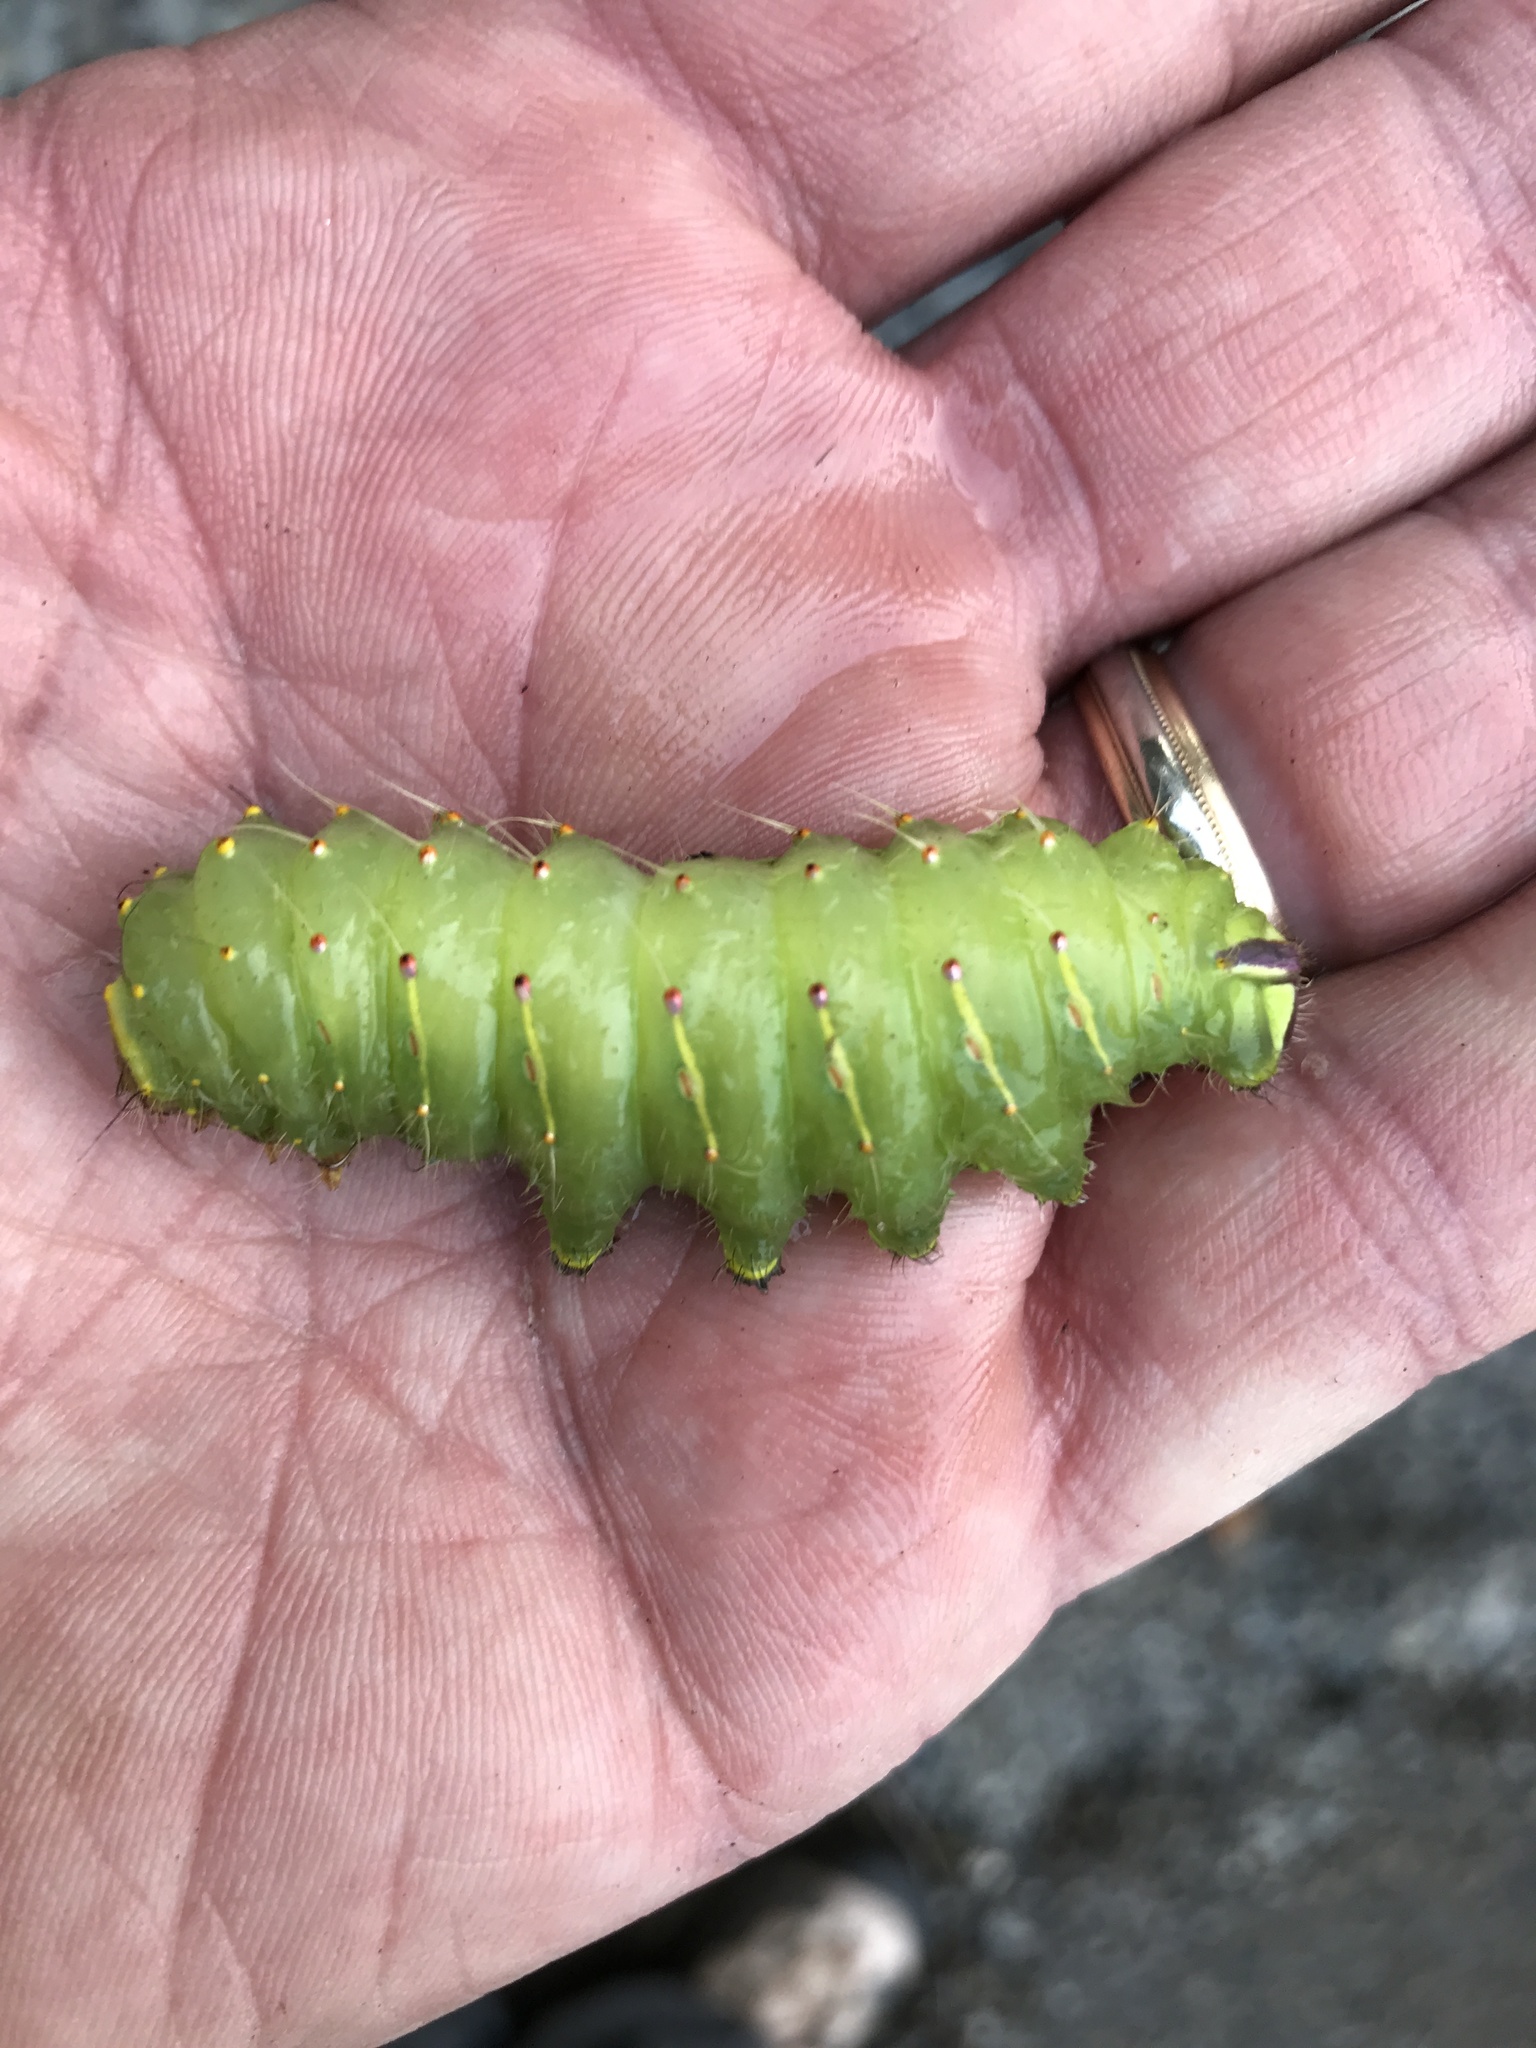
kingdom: Animalia
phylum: Arthropoda
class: Insecta
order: Lepidoptera
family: Saturniidae
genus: Antheraea
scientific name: Antheraea polyphemus
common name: Polyphemus moth
